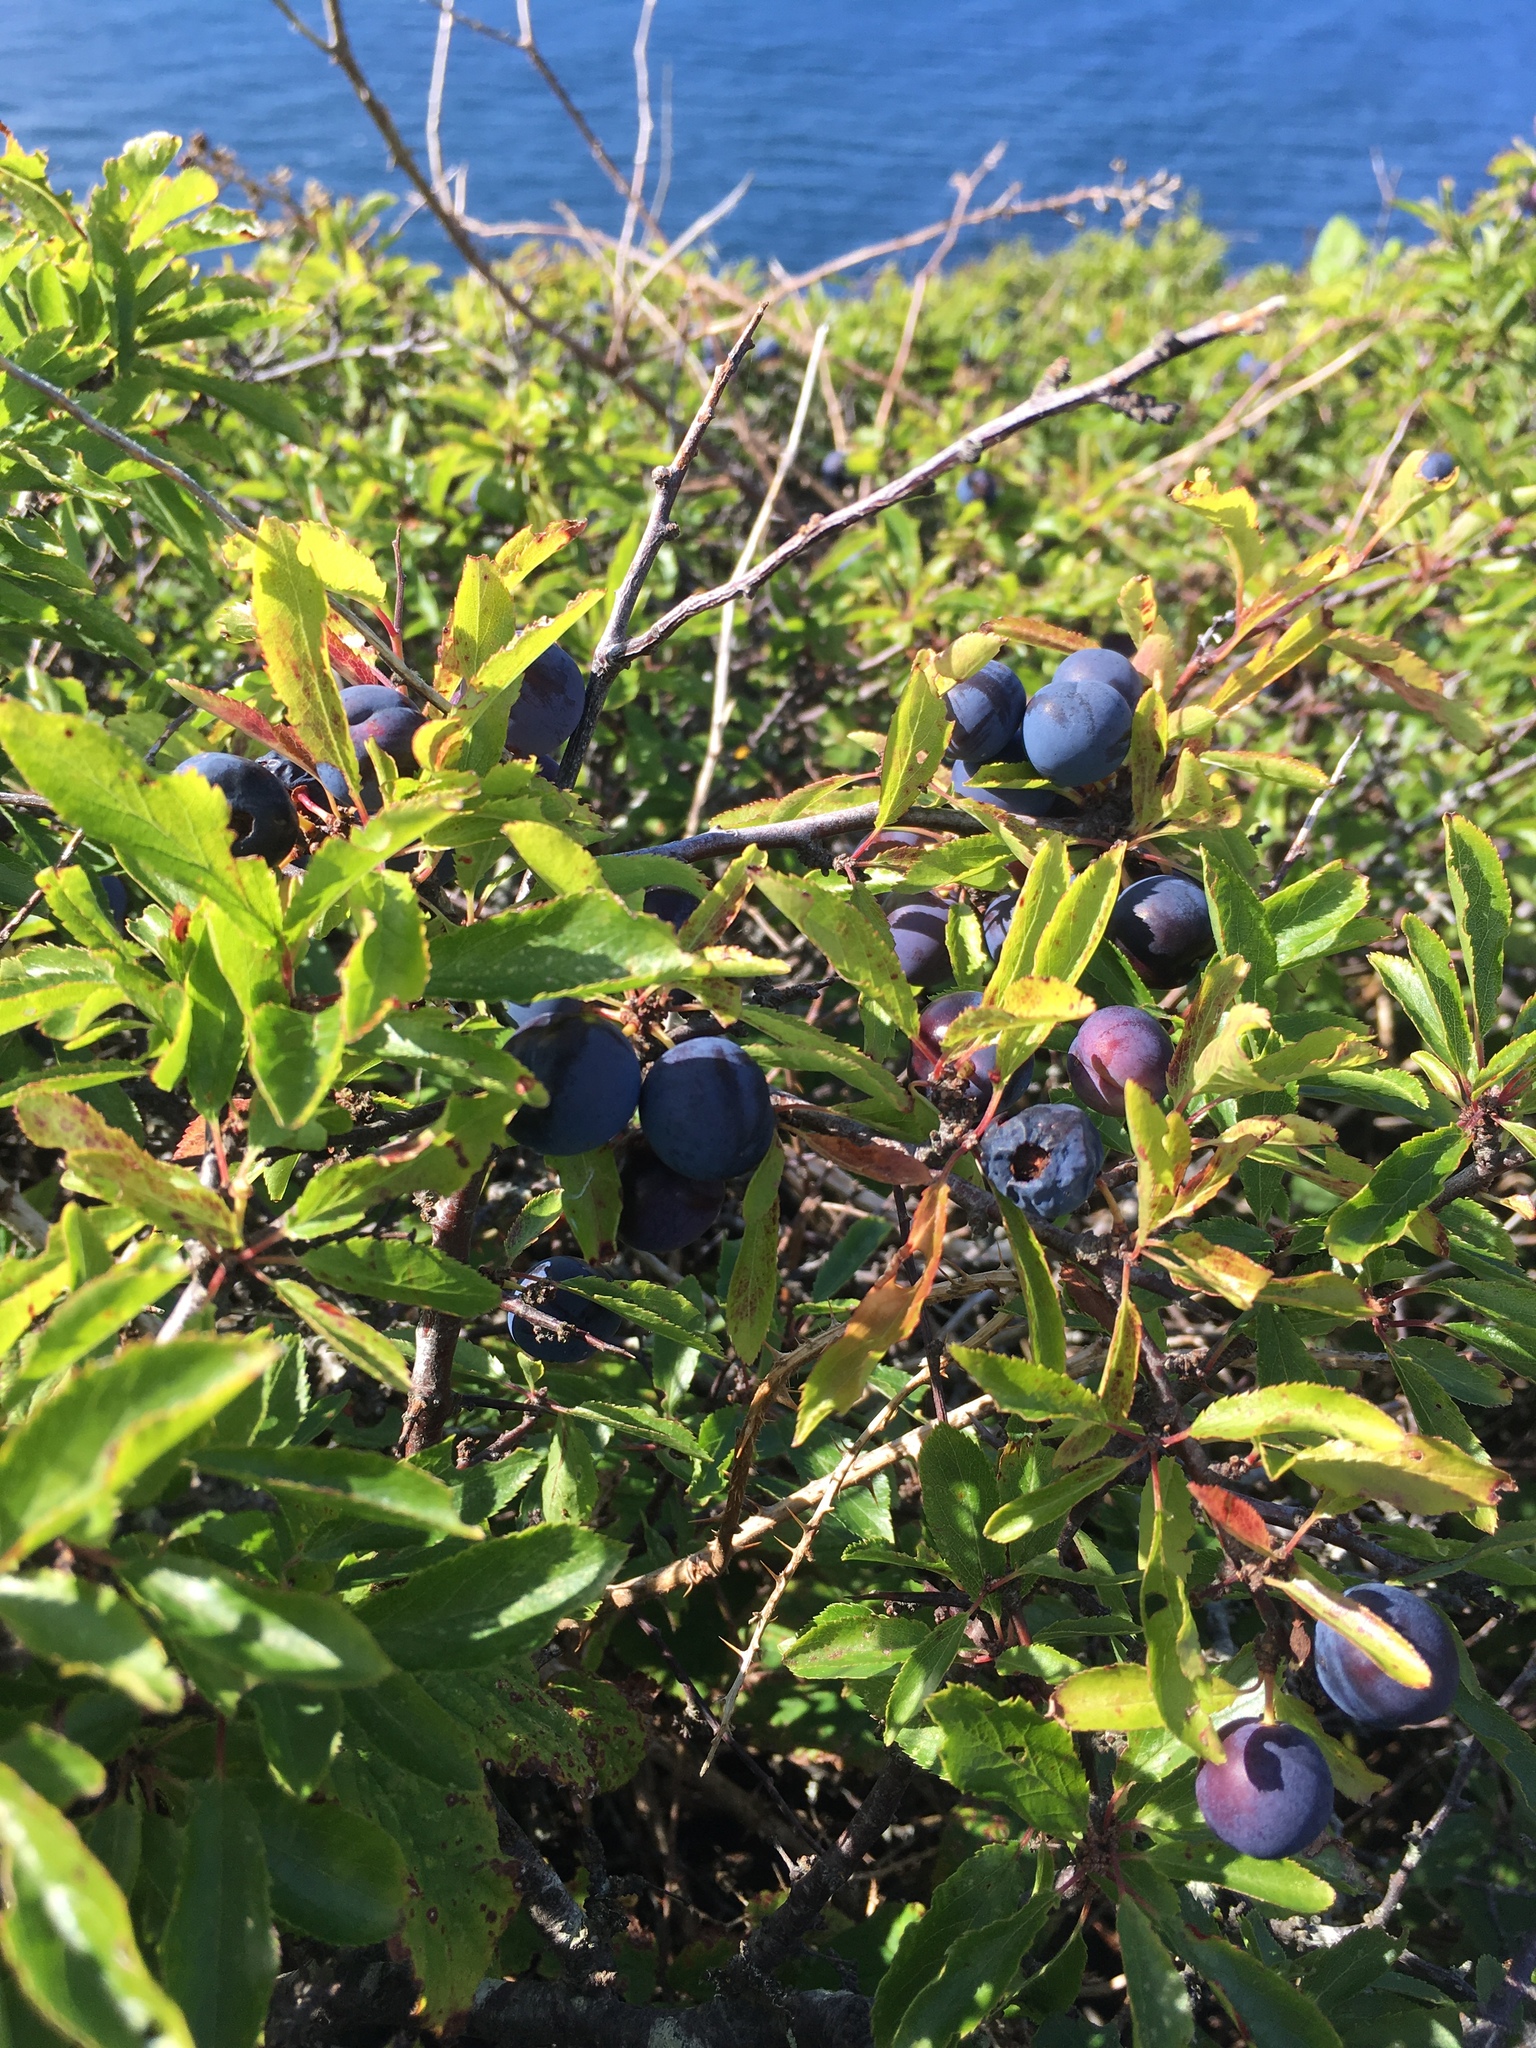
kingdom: Plantae
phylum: Tracheophyta
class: Magnoliopsida
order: Rosales
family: Rosaceae
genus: Prunus
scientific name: Prunus spinosa
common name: Blackthorn
